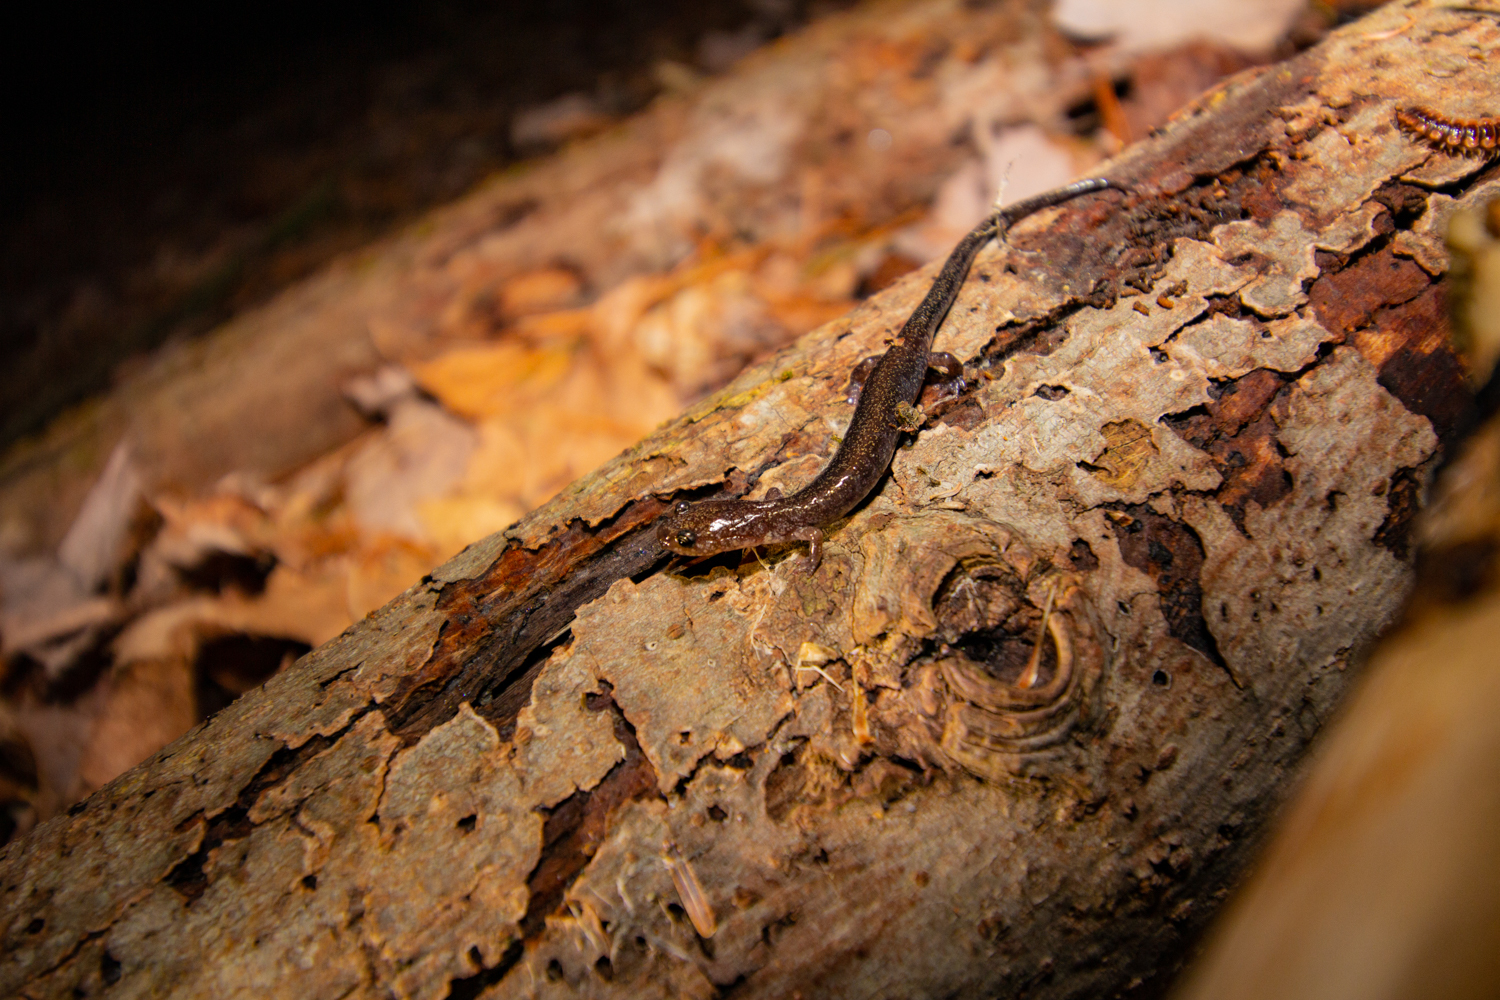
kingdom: Animalia
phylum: Chordata
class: Amphibia
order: Caudata
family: Plethodontidae
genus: Plethodon
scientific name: Plethodon cinereus
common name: Redback salamander
